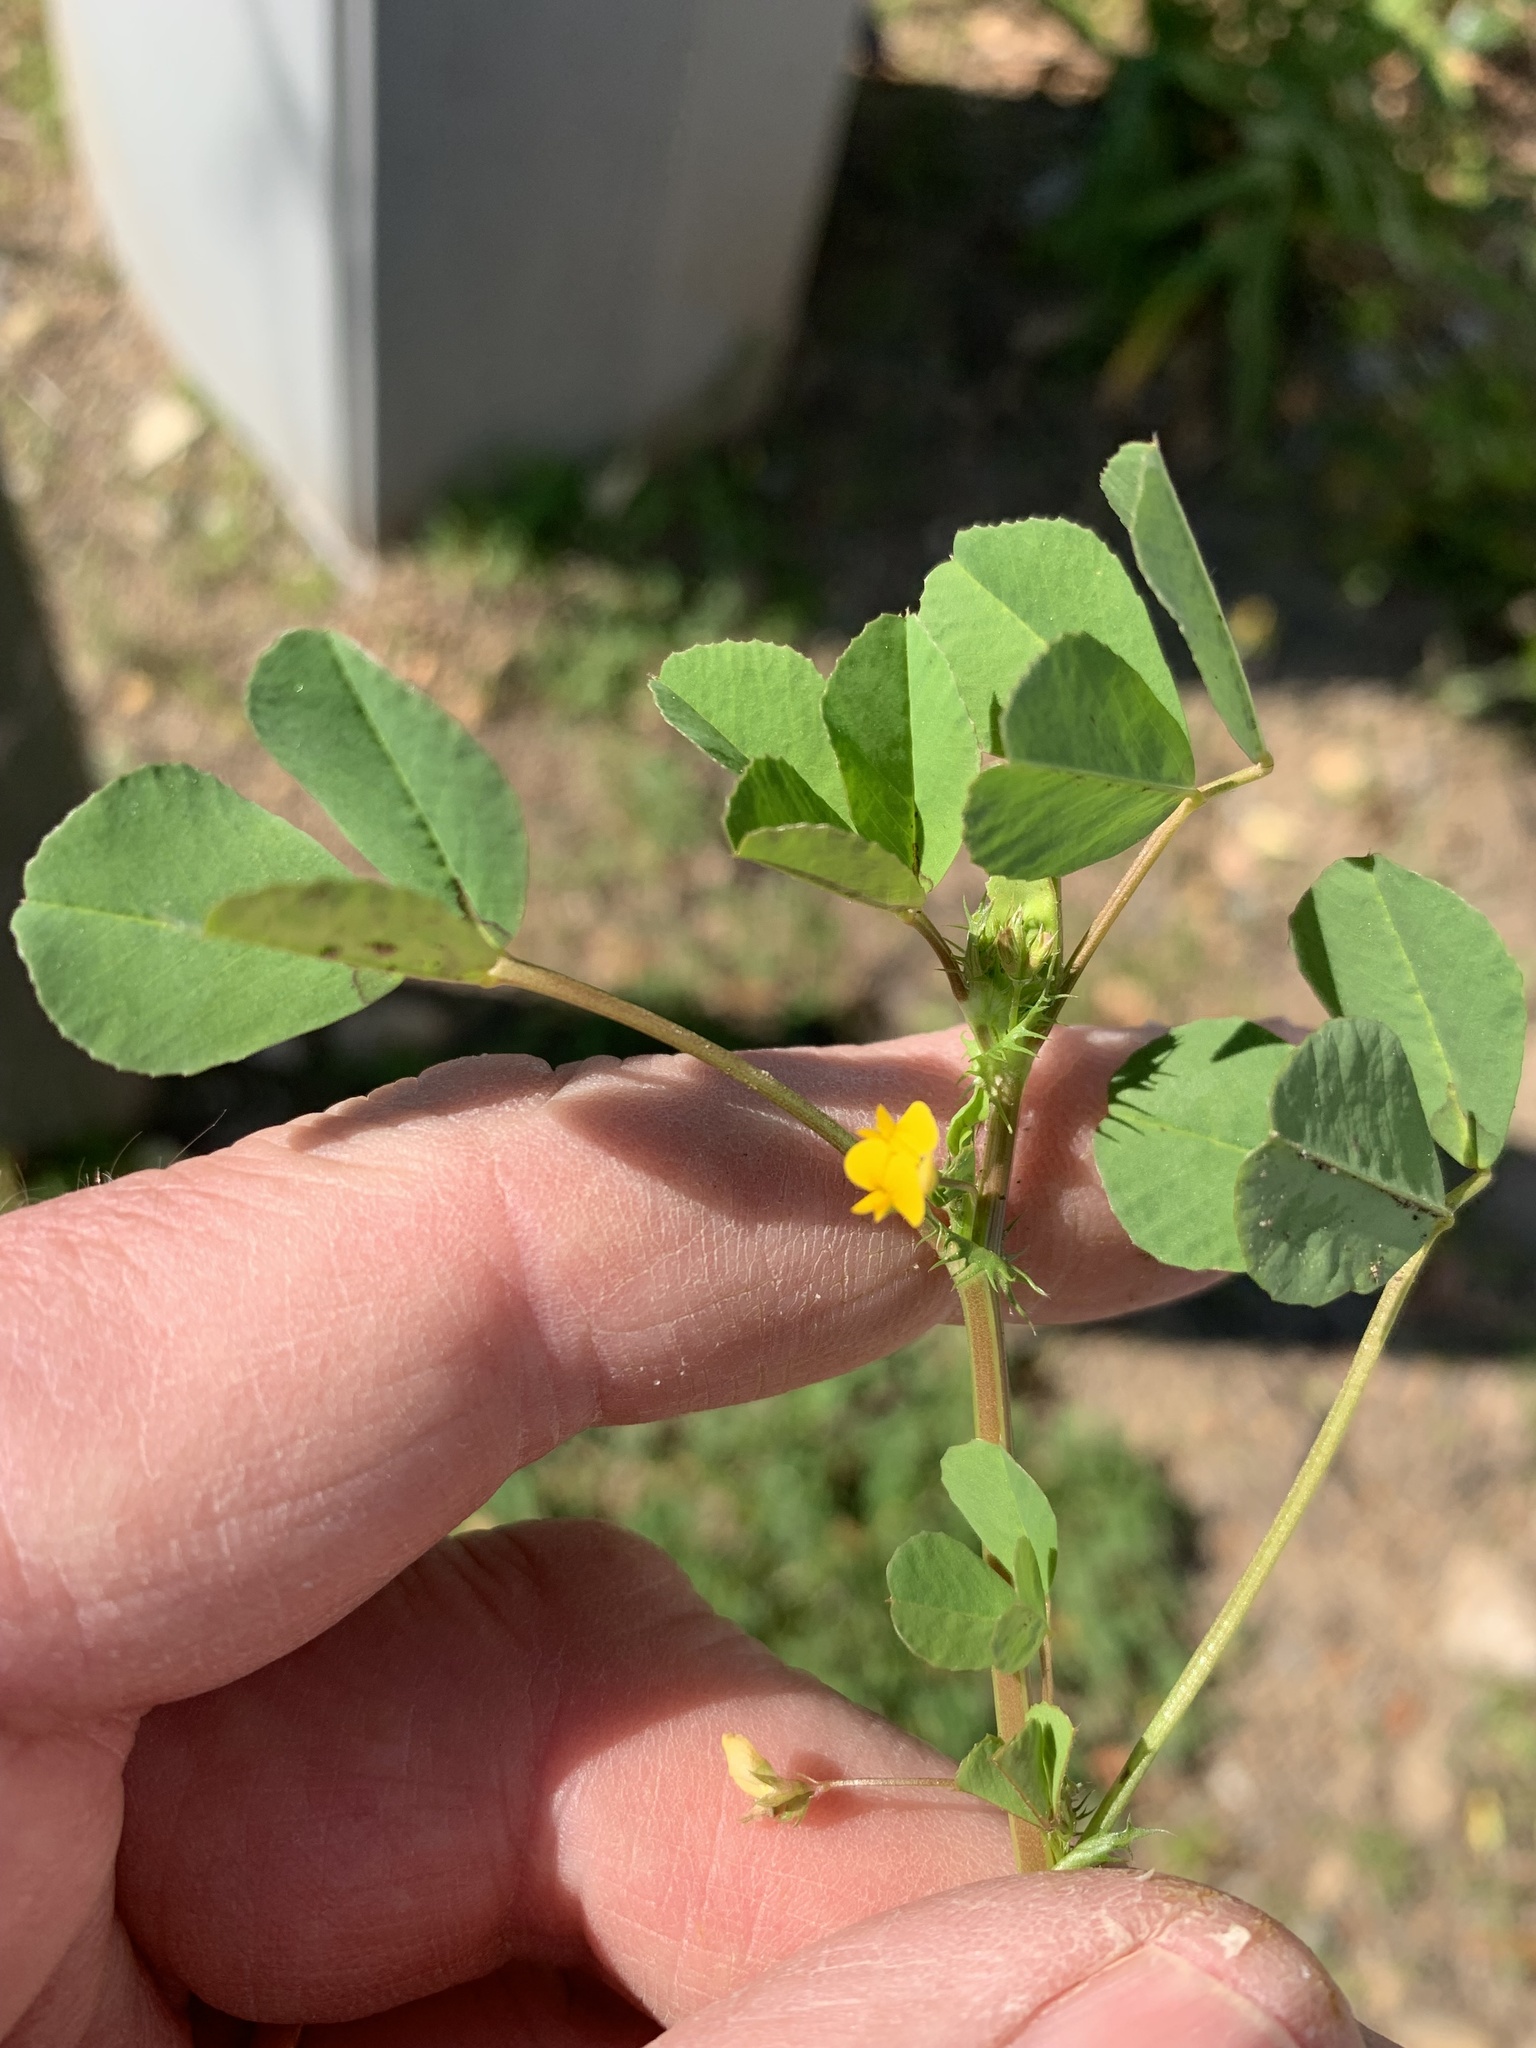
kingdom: Plantae
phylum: Tracheophyta
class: Magnoliopsida
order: Fabales
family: Fabaceae
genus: Medicago
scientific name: Medicago polymorpha
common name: Burclover
